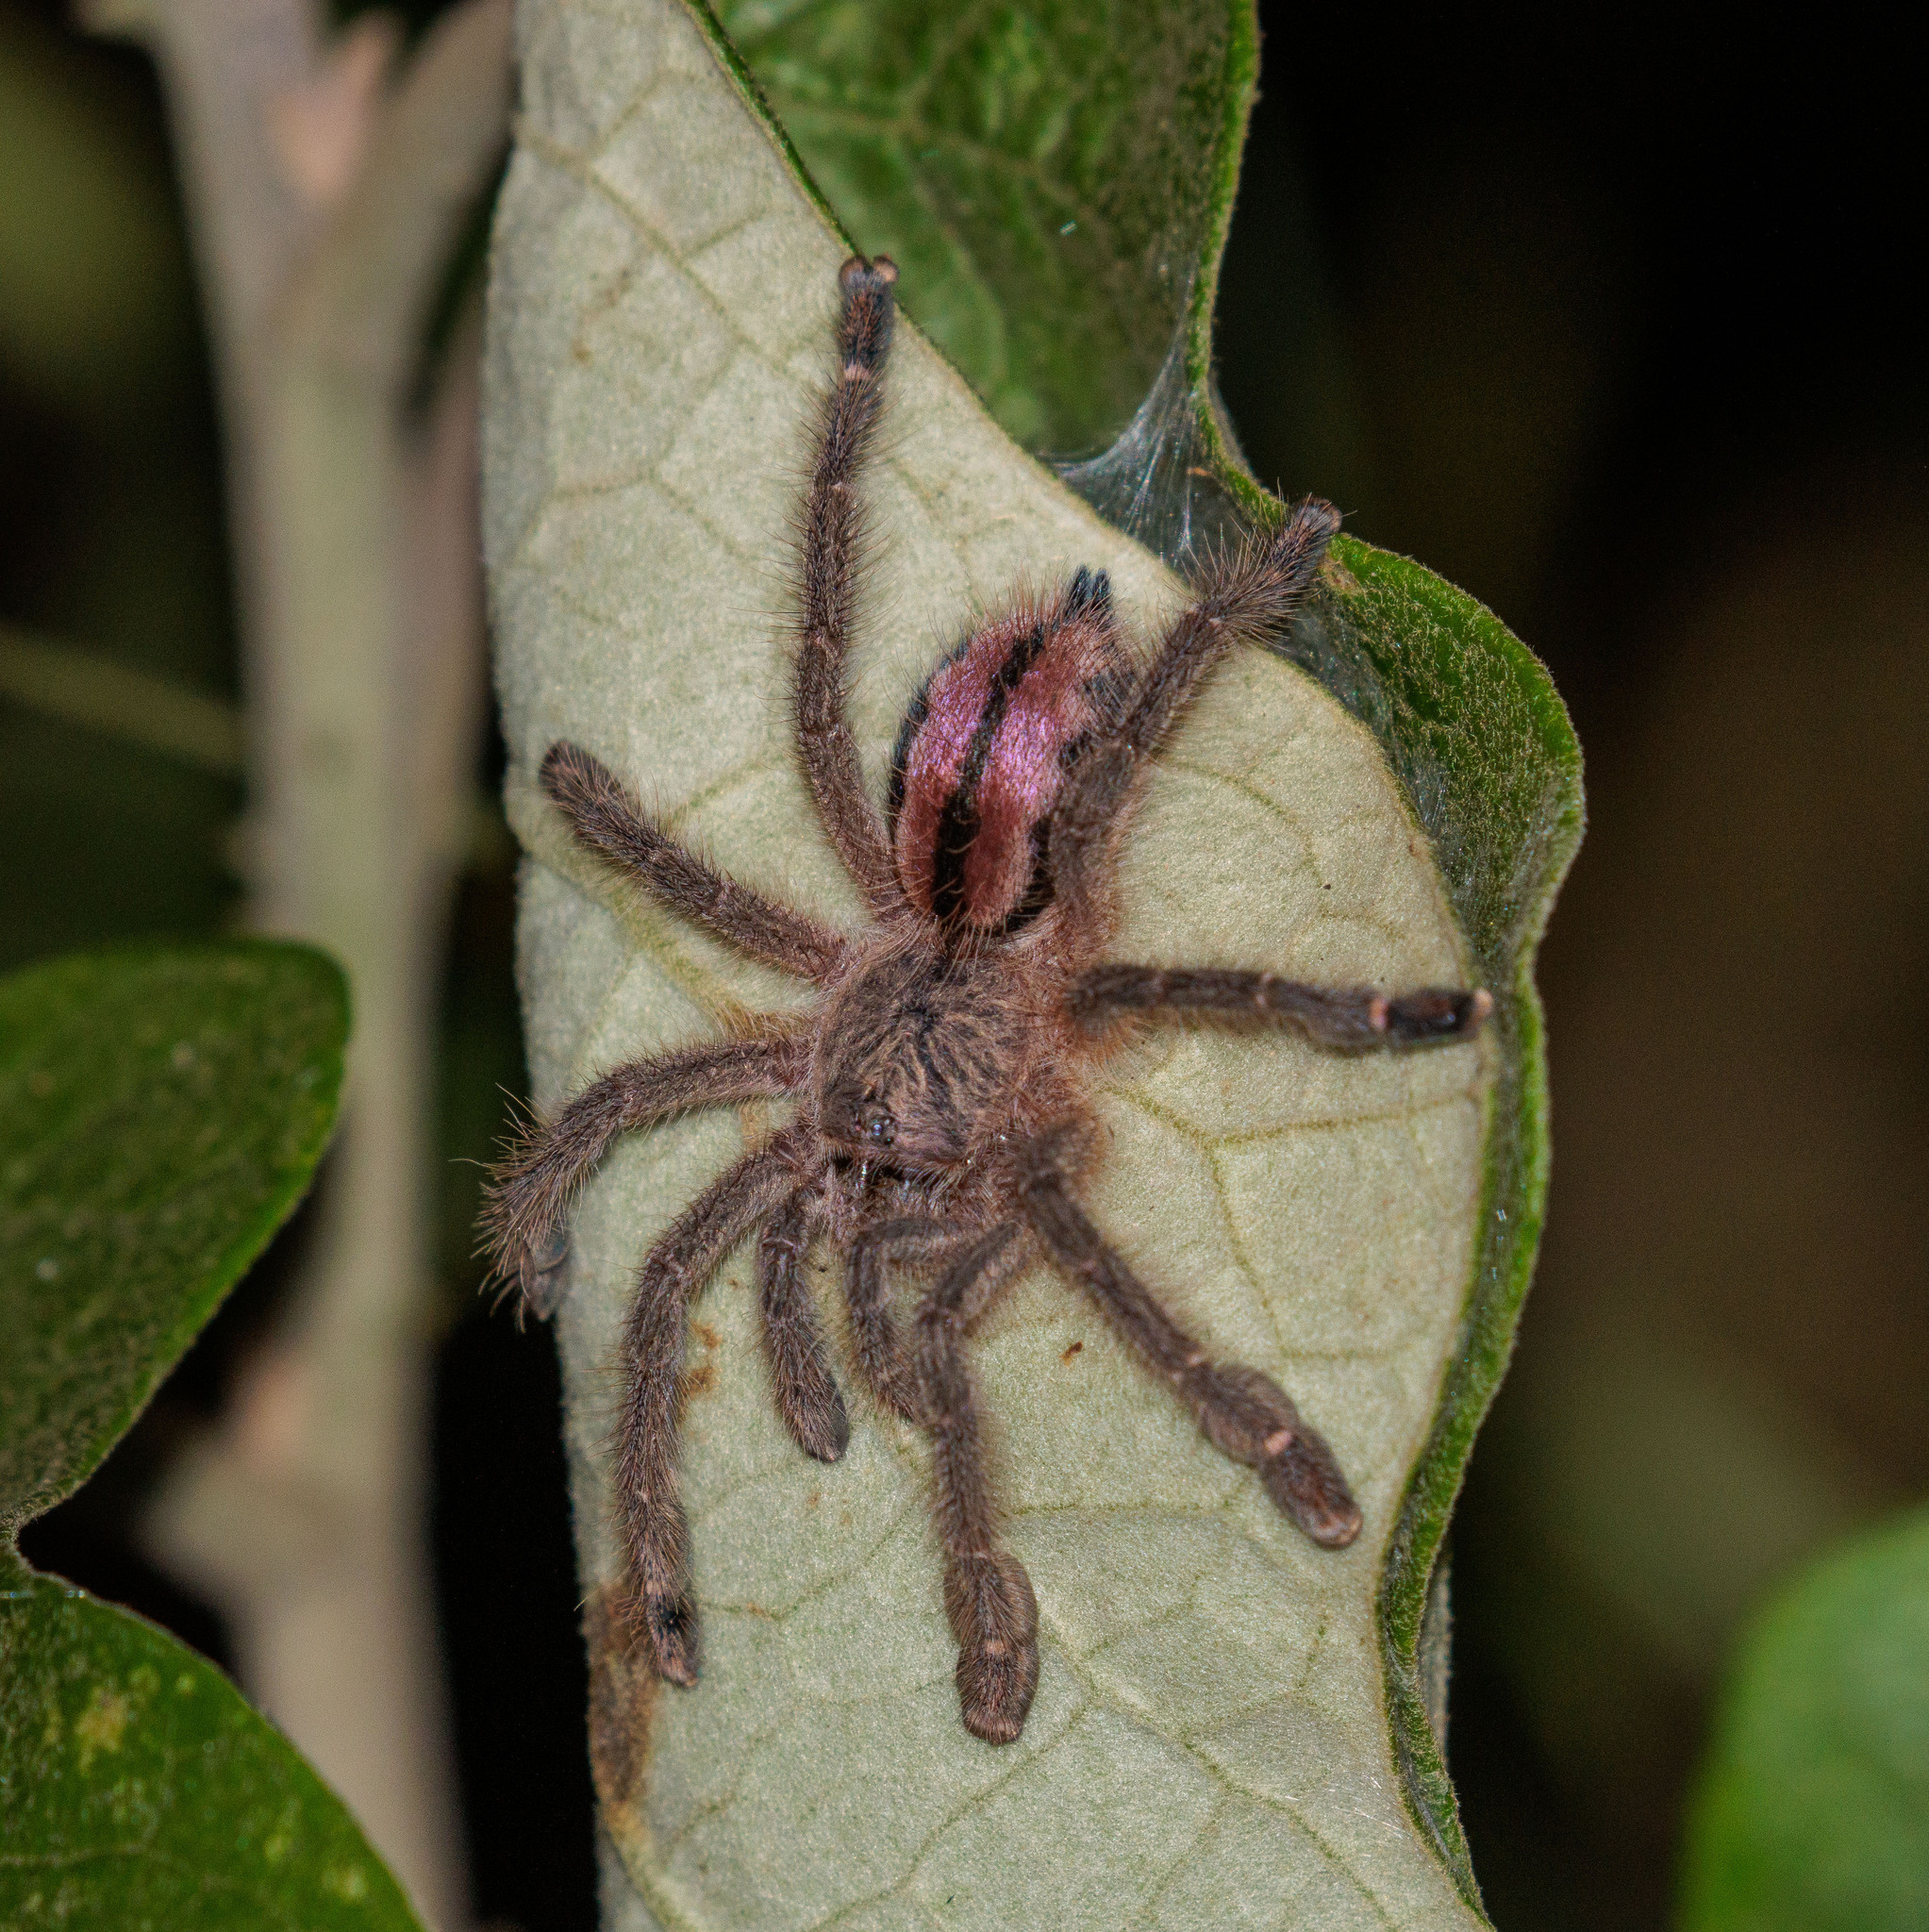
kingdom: Animalia
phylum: Arthropoda
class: Arachnida
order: Araneae
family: Theraphosidae
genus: Iridopelma
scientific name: Iridopelma hirsutum
